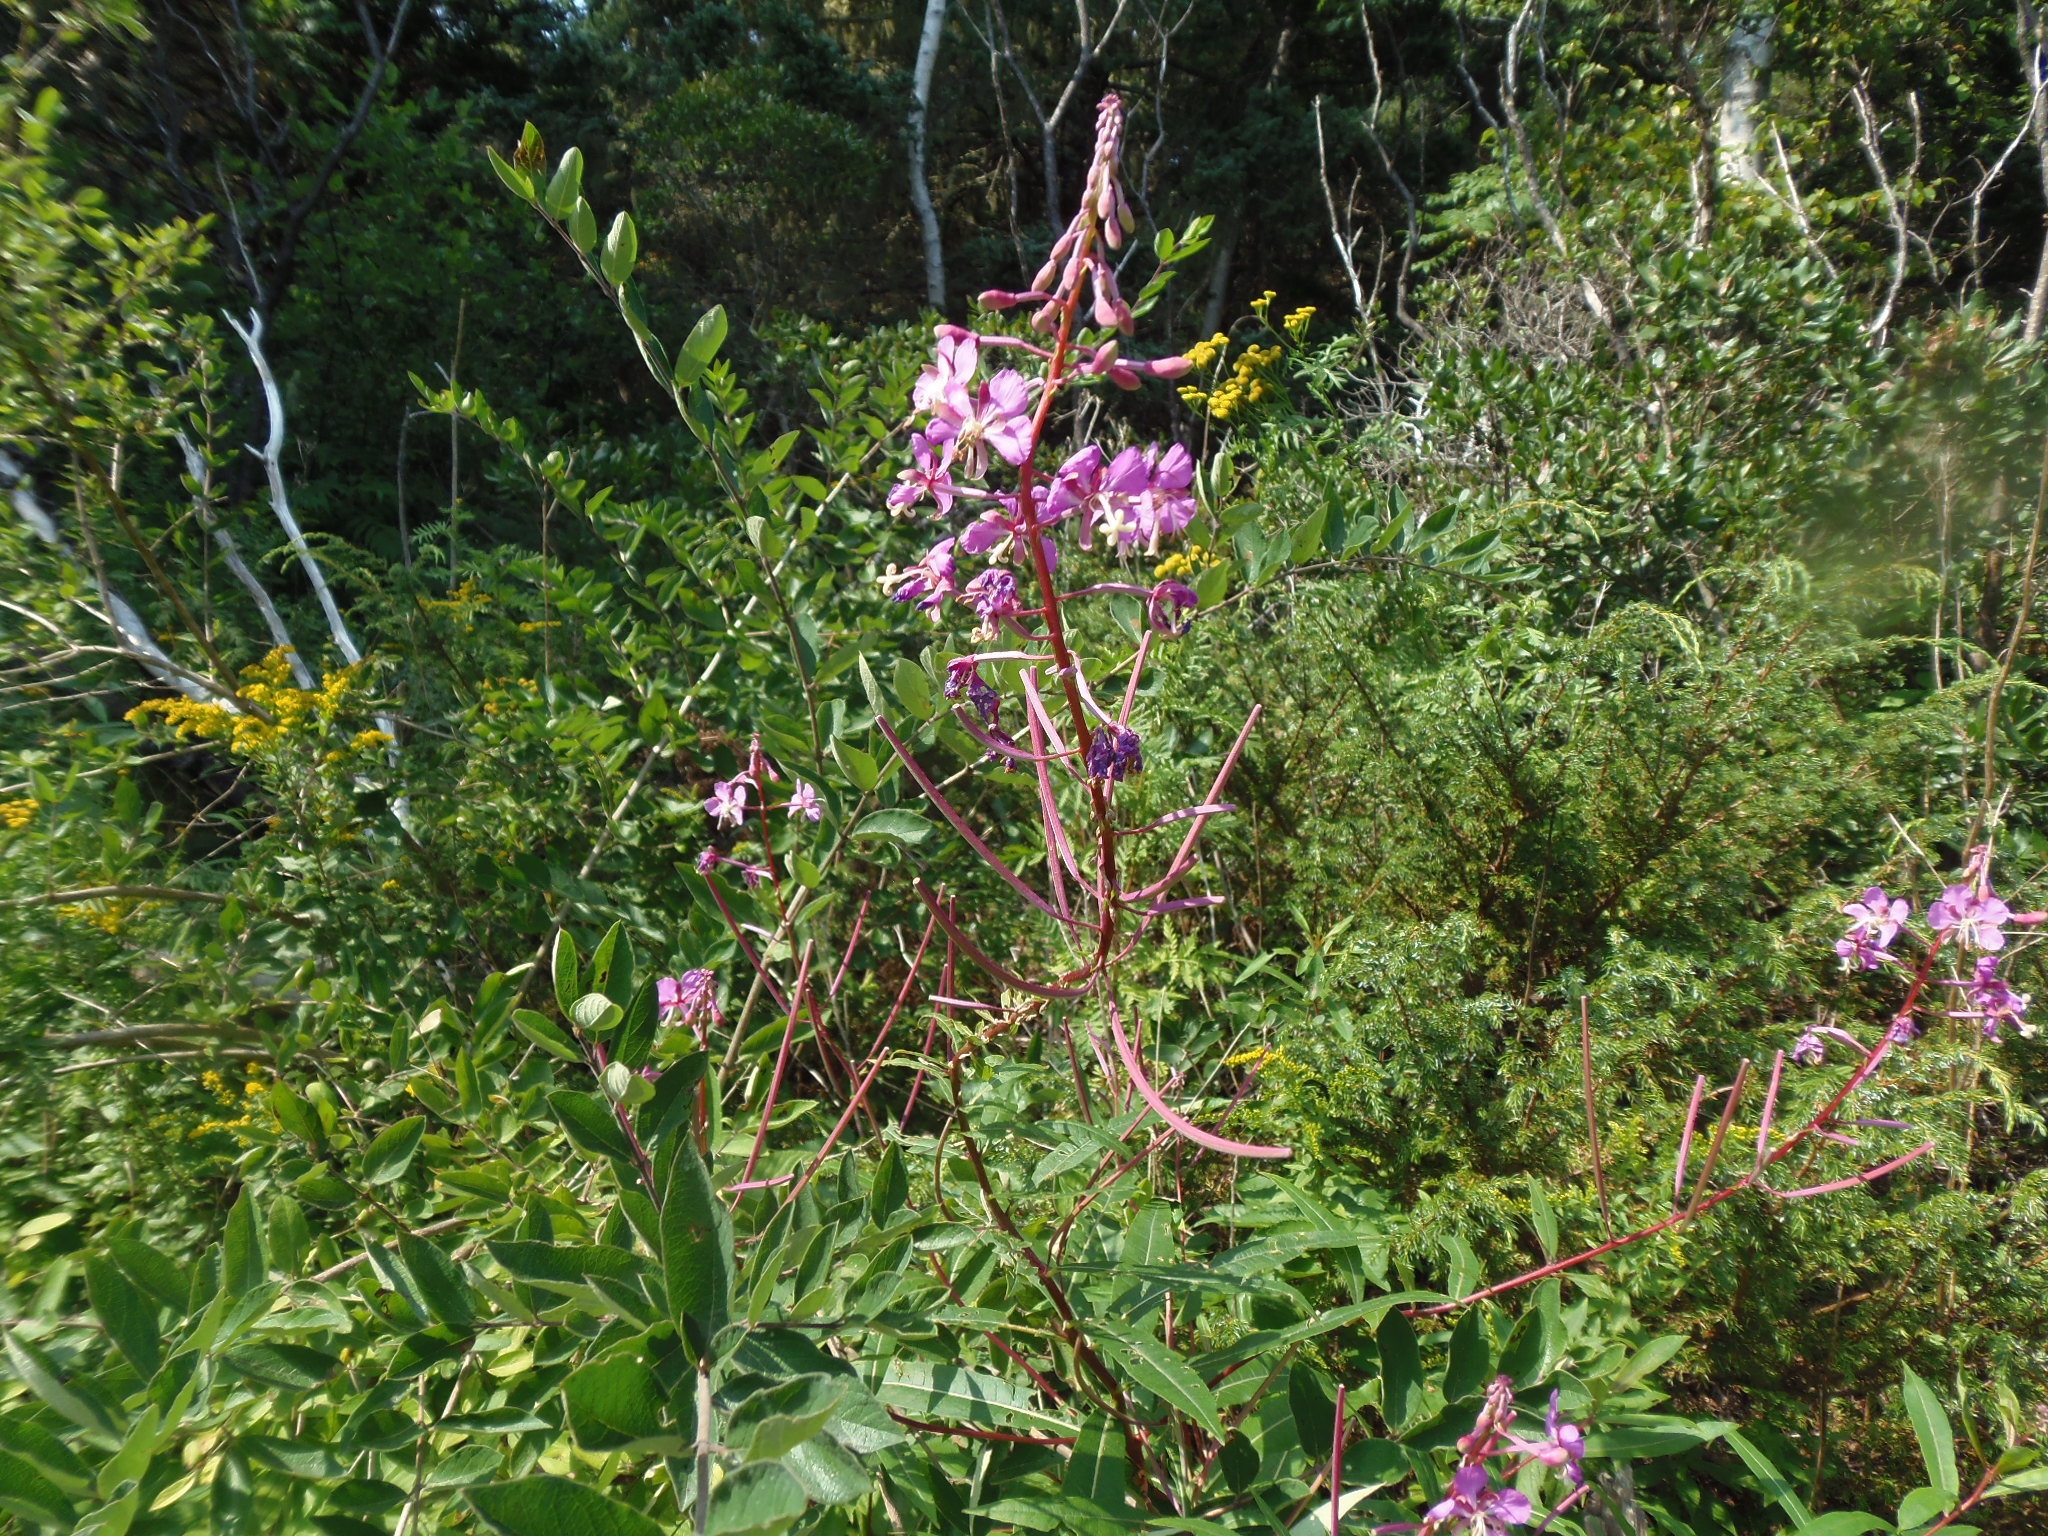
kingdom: Plantae
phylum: Tracheophyta
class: Magnoliopsida
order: Myrtales
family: Onagraceae
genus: Chamaenerion
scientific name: Chamaenerion angustifolium
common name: Fireweed
